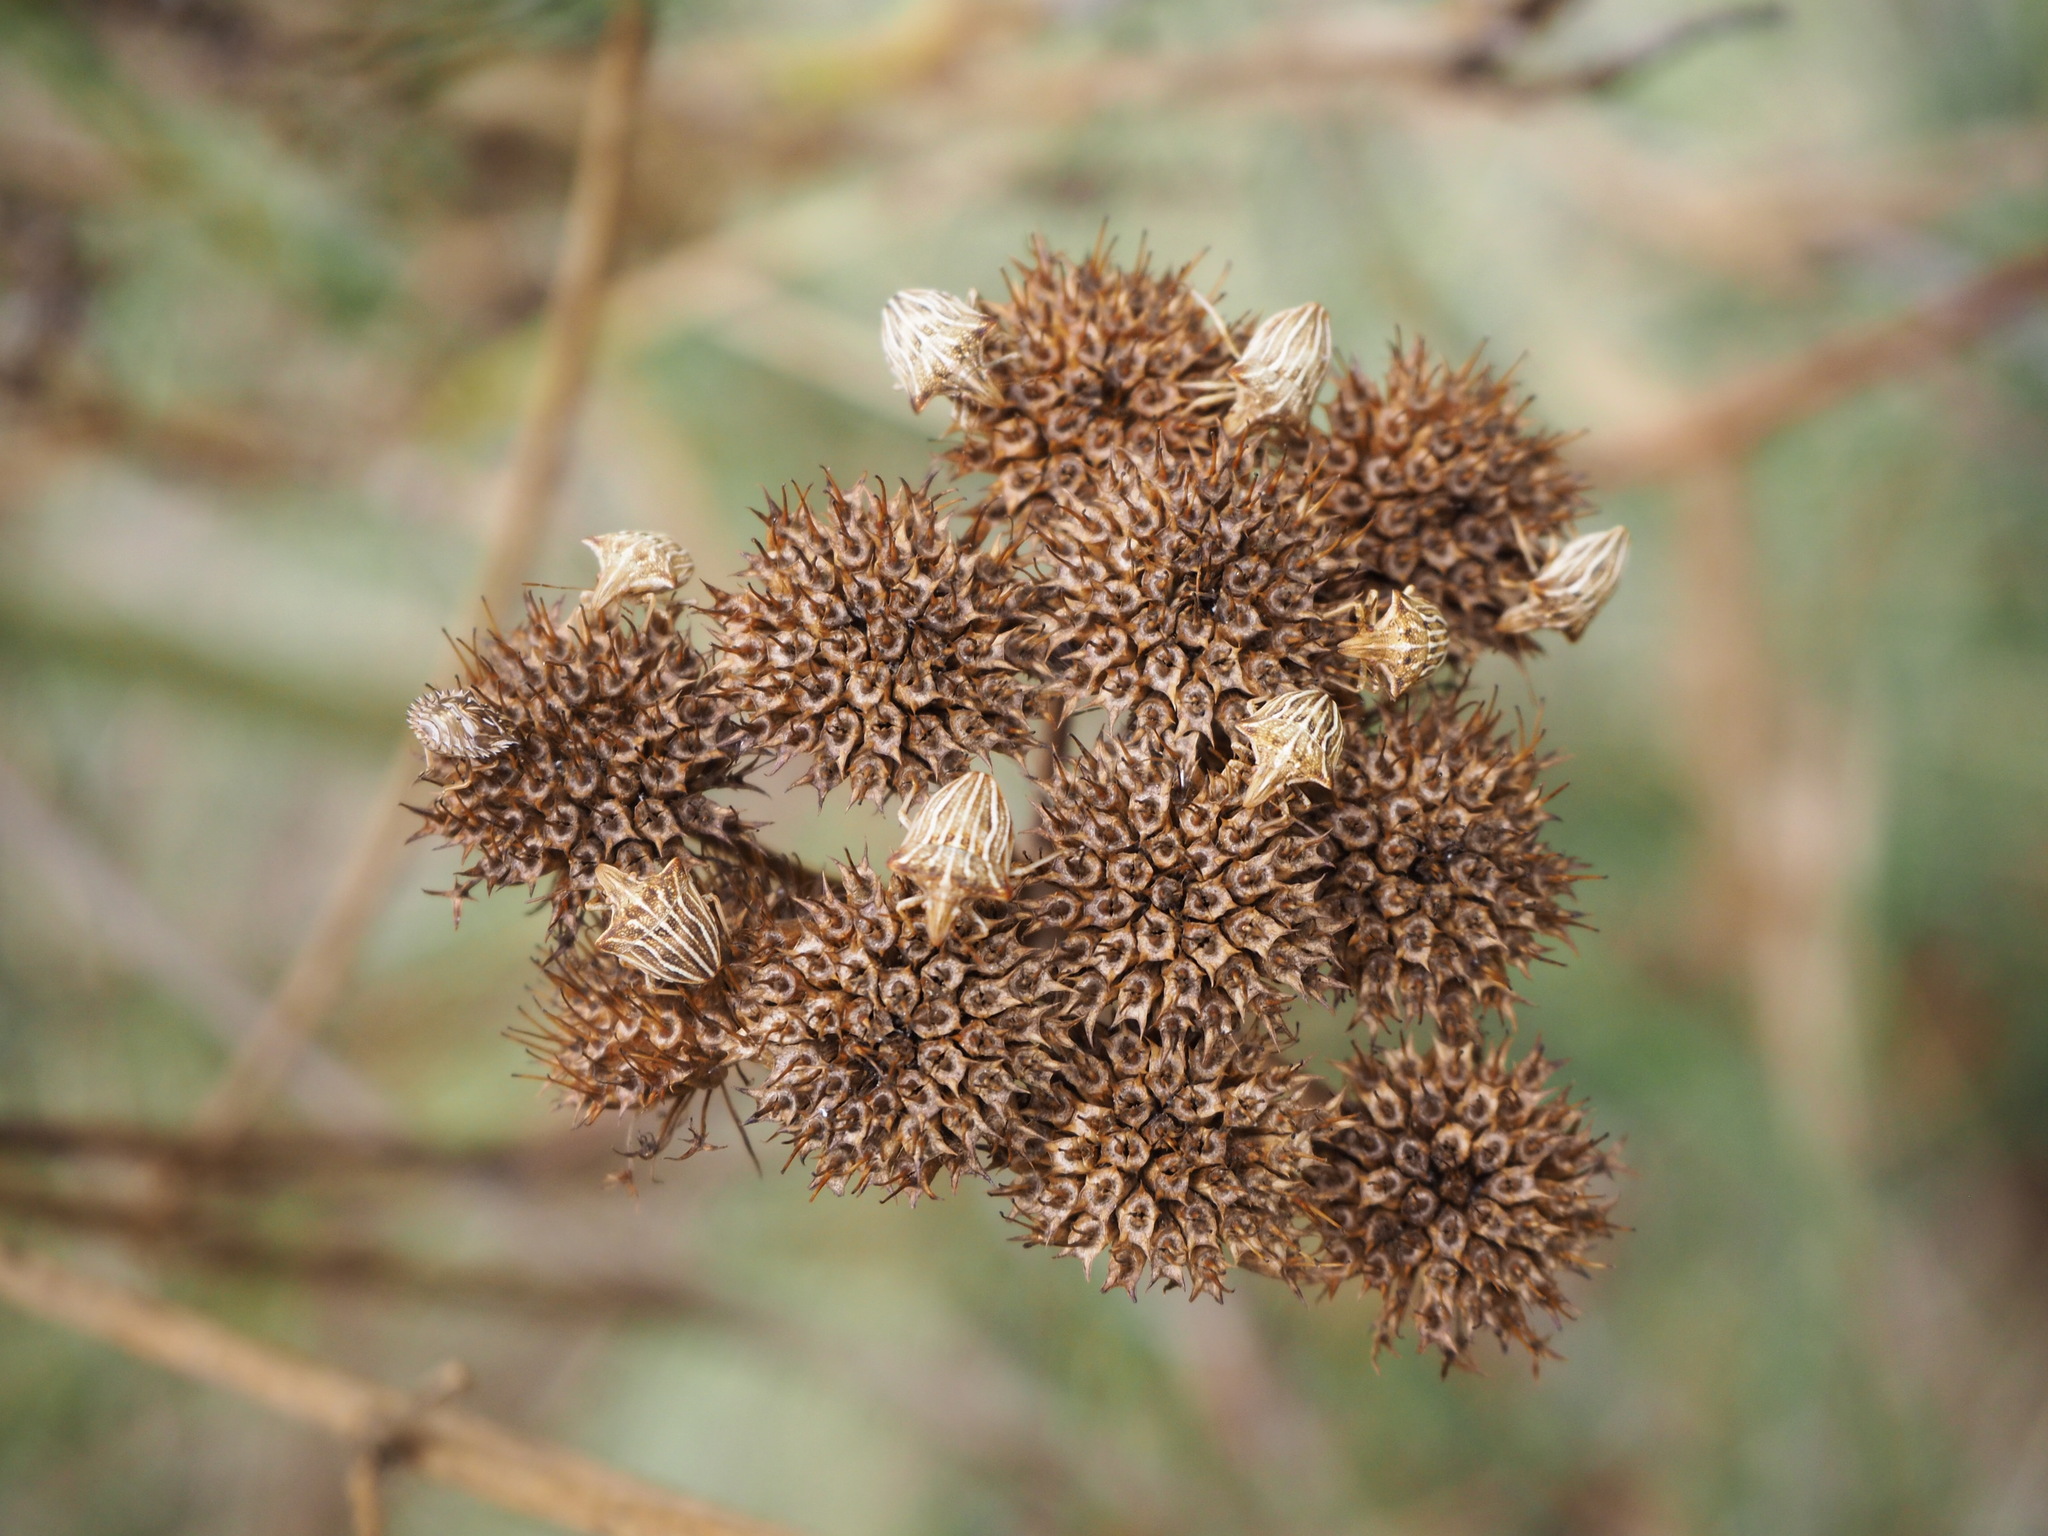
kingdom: Animalia
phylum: Arthropoda
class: Insecta
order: Hemiptera
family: Pentatomidae
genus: Ancyrosoma
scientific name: Ancyrosoma leucogrammes
